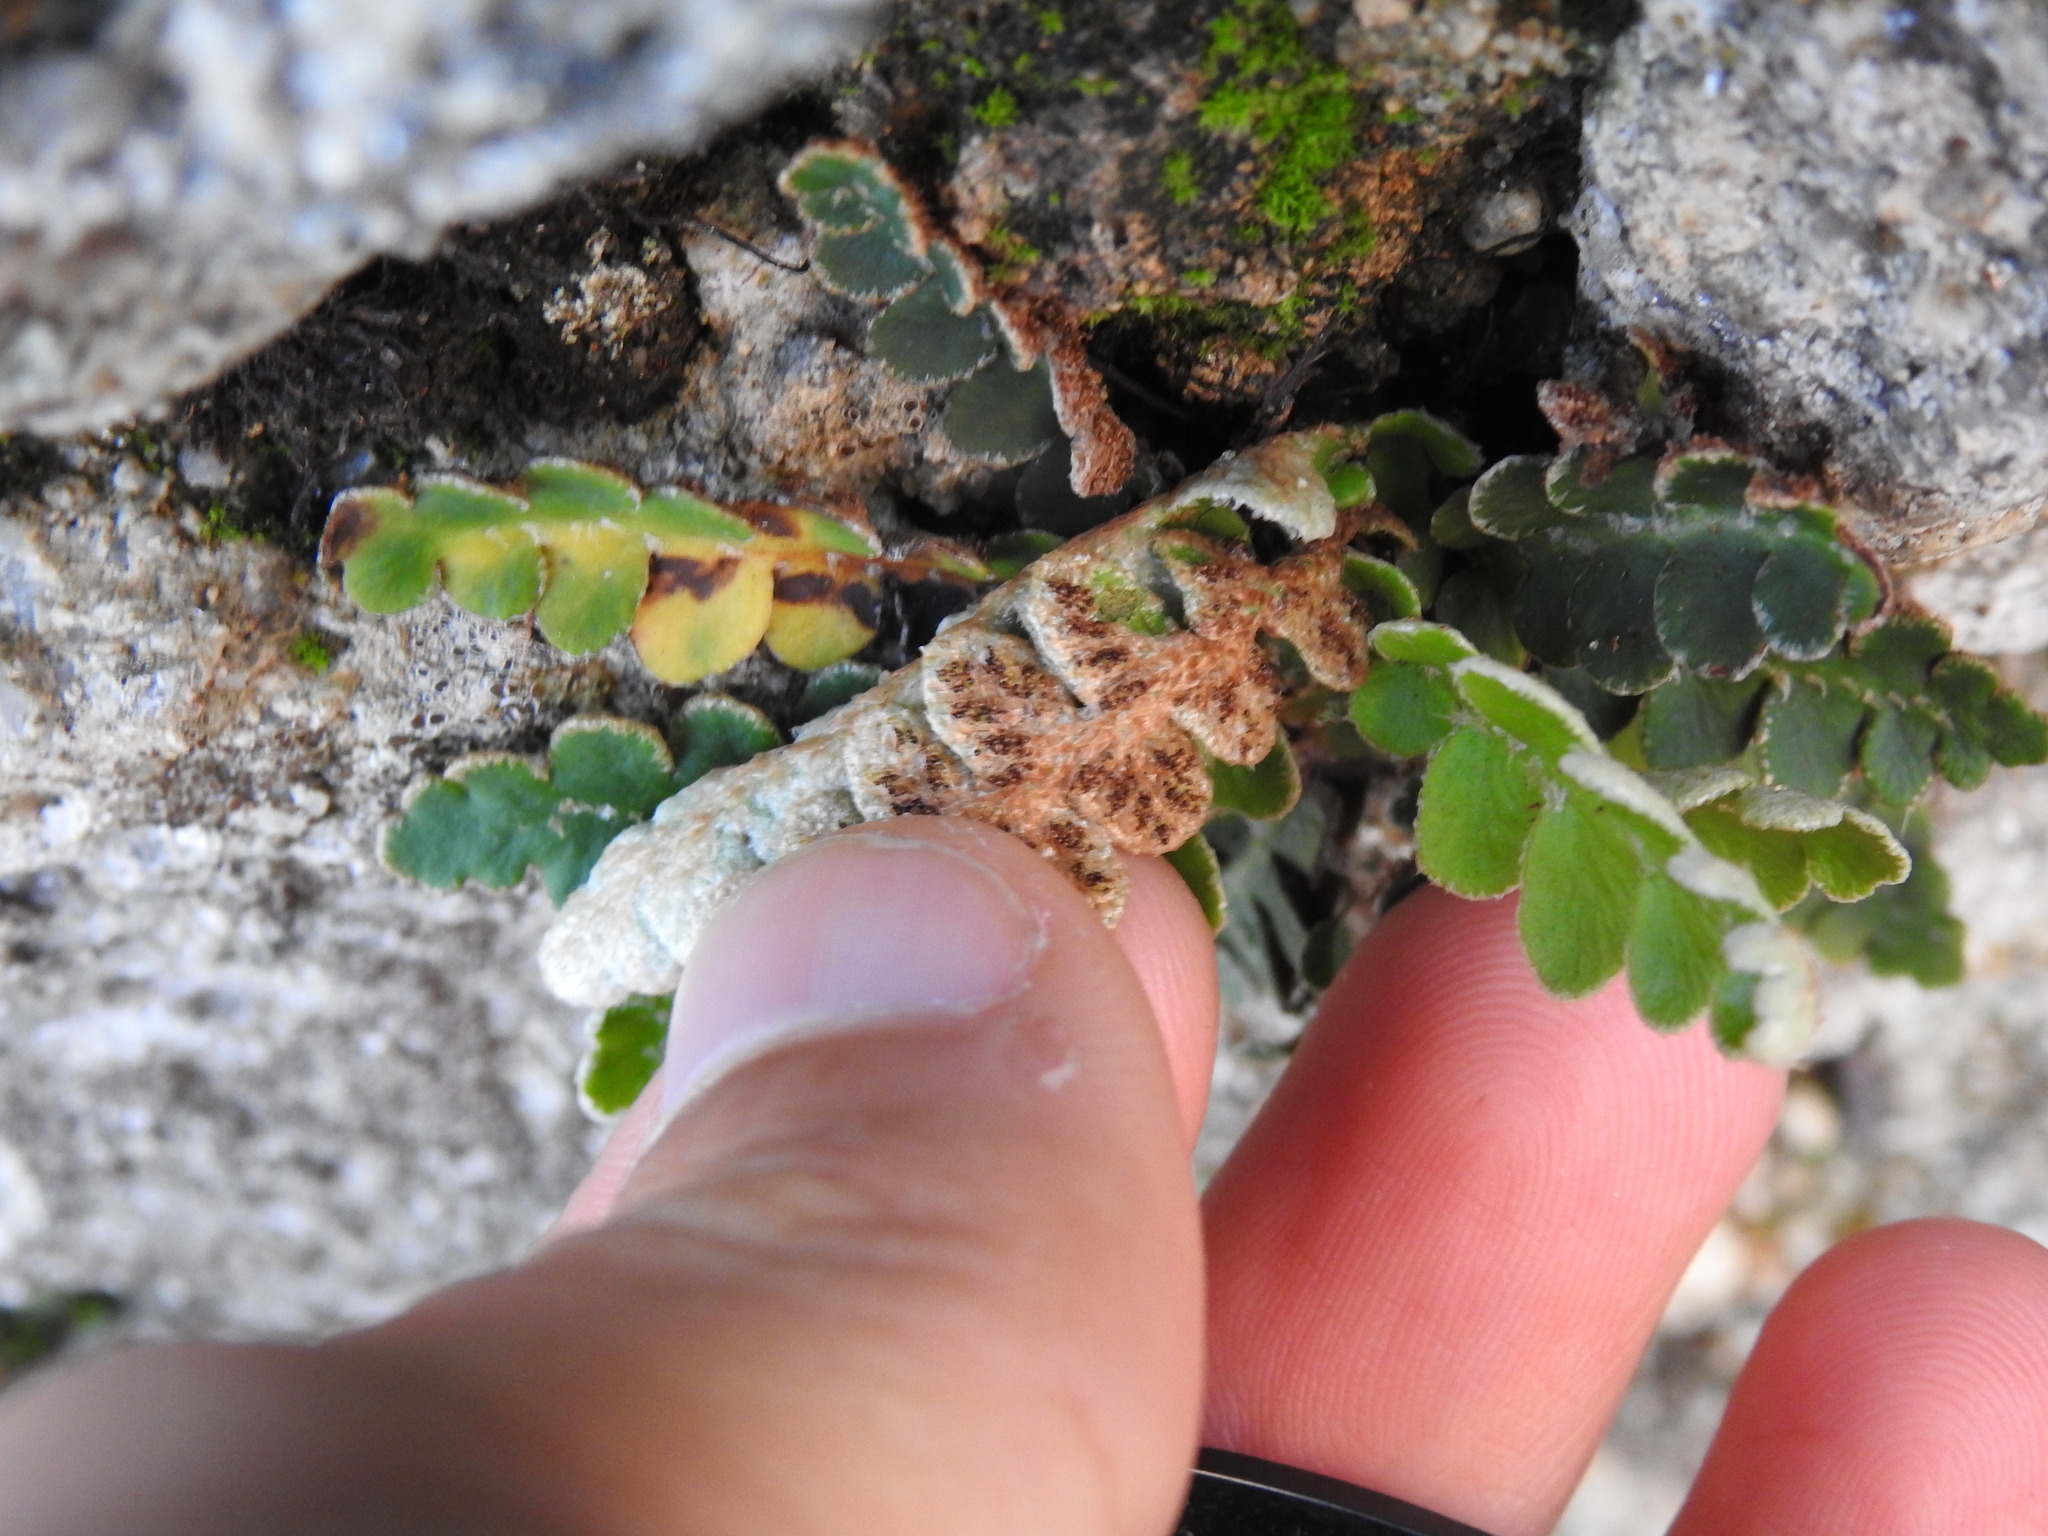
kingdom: Plantae
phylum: Tracheophyta
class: Polypodiopsida
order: Polypodiales
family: Aspleniaceae
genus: Asplenium
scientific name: Asplenium ceterach
